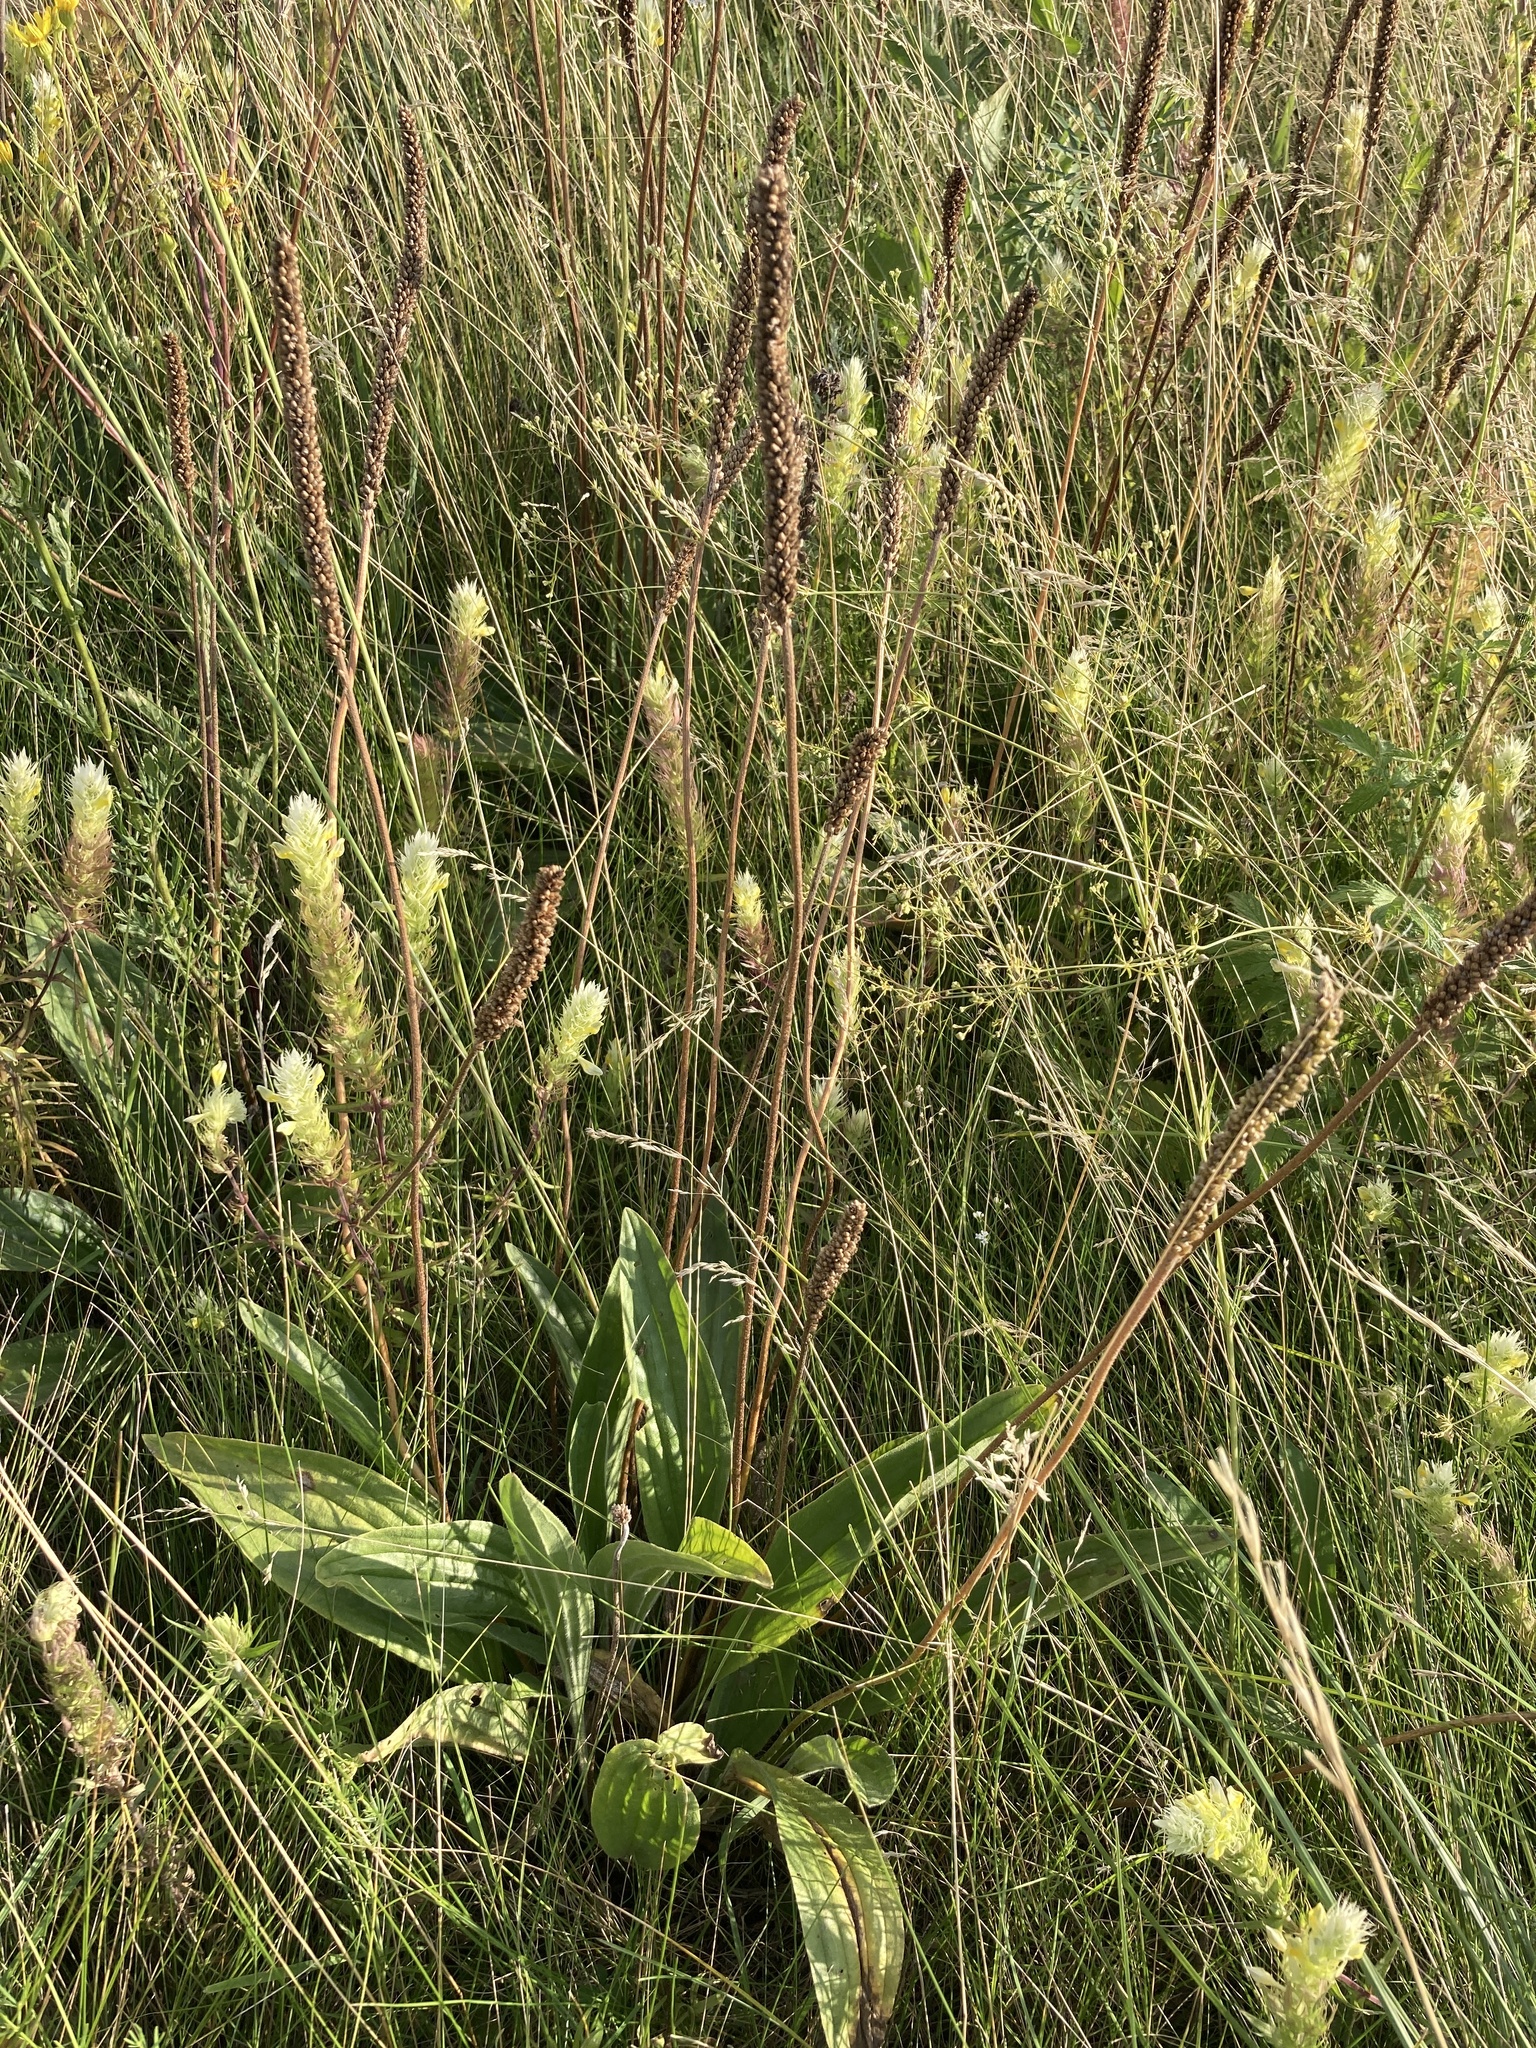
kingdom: Plantae
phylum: Tracheophyta
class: Magnoliopsida
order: Lamiales
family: Plantaginaceae
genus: Plantago
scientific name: Plantago urvillei
